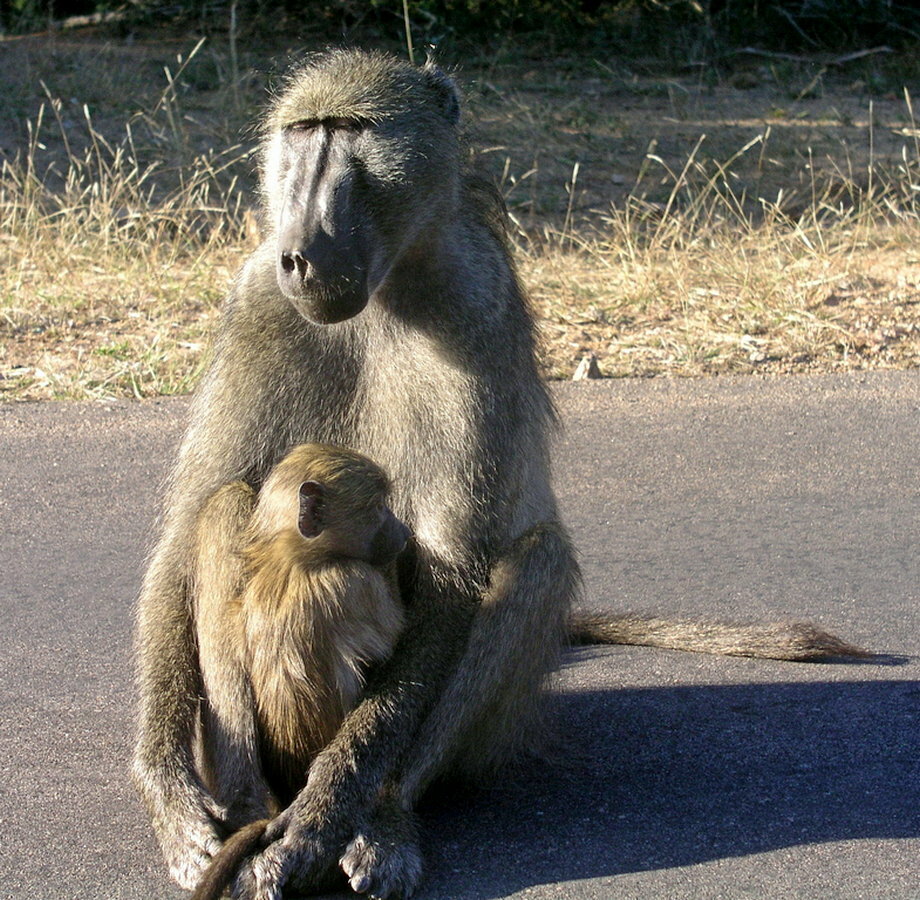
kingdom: Animalia
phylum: Chordata
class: Mammalia
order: Primates
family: Cercopithecidae
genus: Papio
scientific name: Papio ursinus
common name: Chacma baboon
